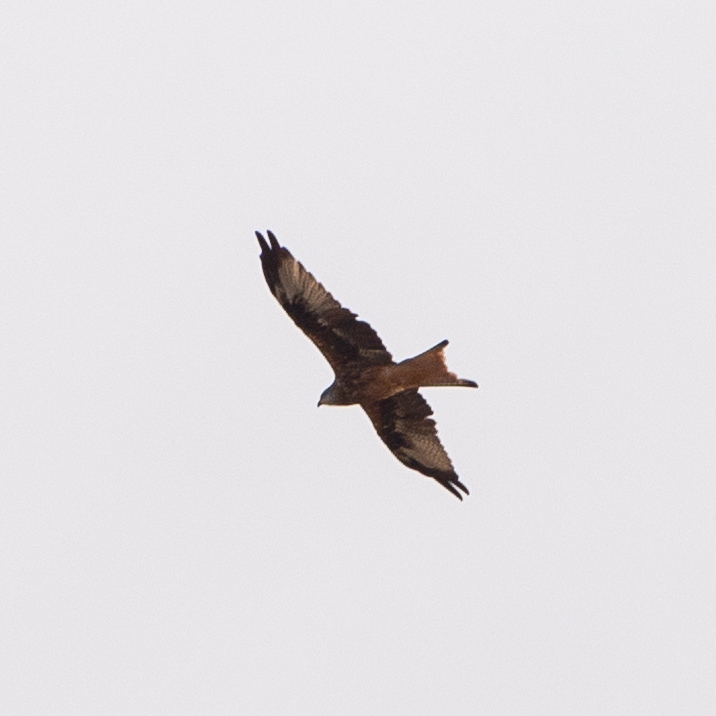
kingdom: Animalia
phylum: Chordata
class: Aves
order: Accipitriformes
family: Accipitridae
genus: Milvus
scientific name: Milvus milvus
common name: Red kite
